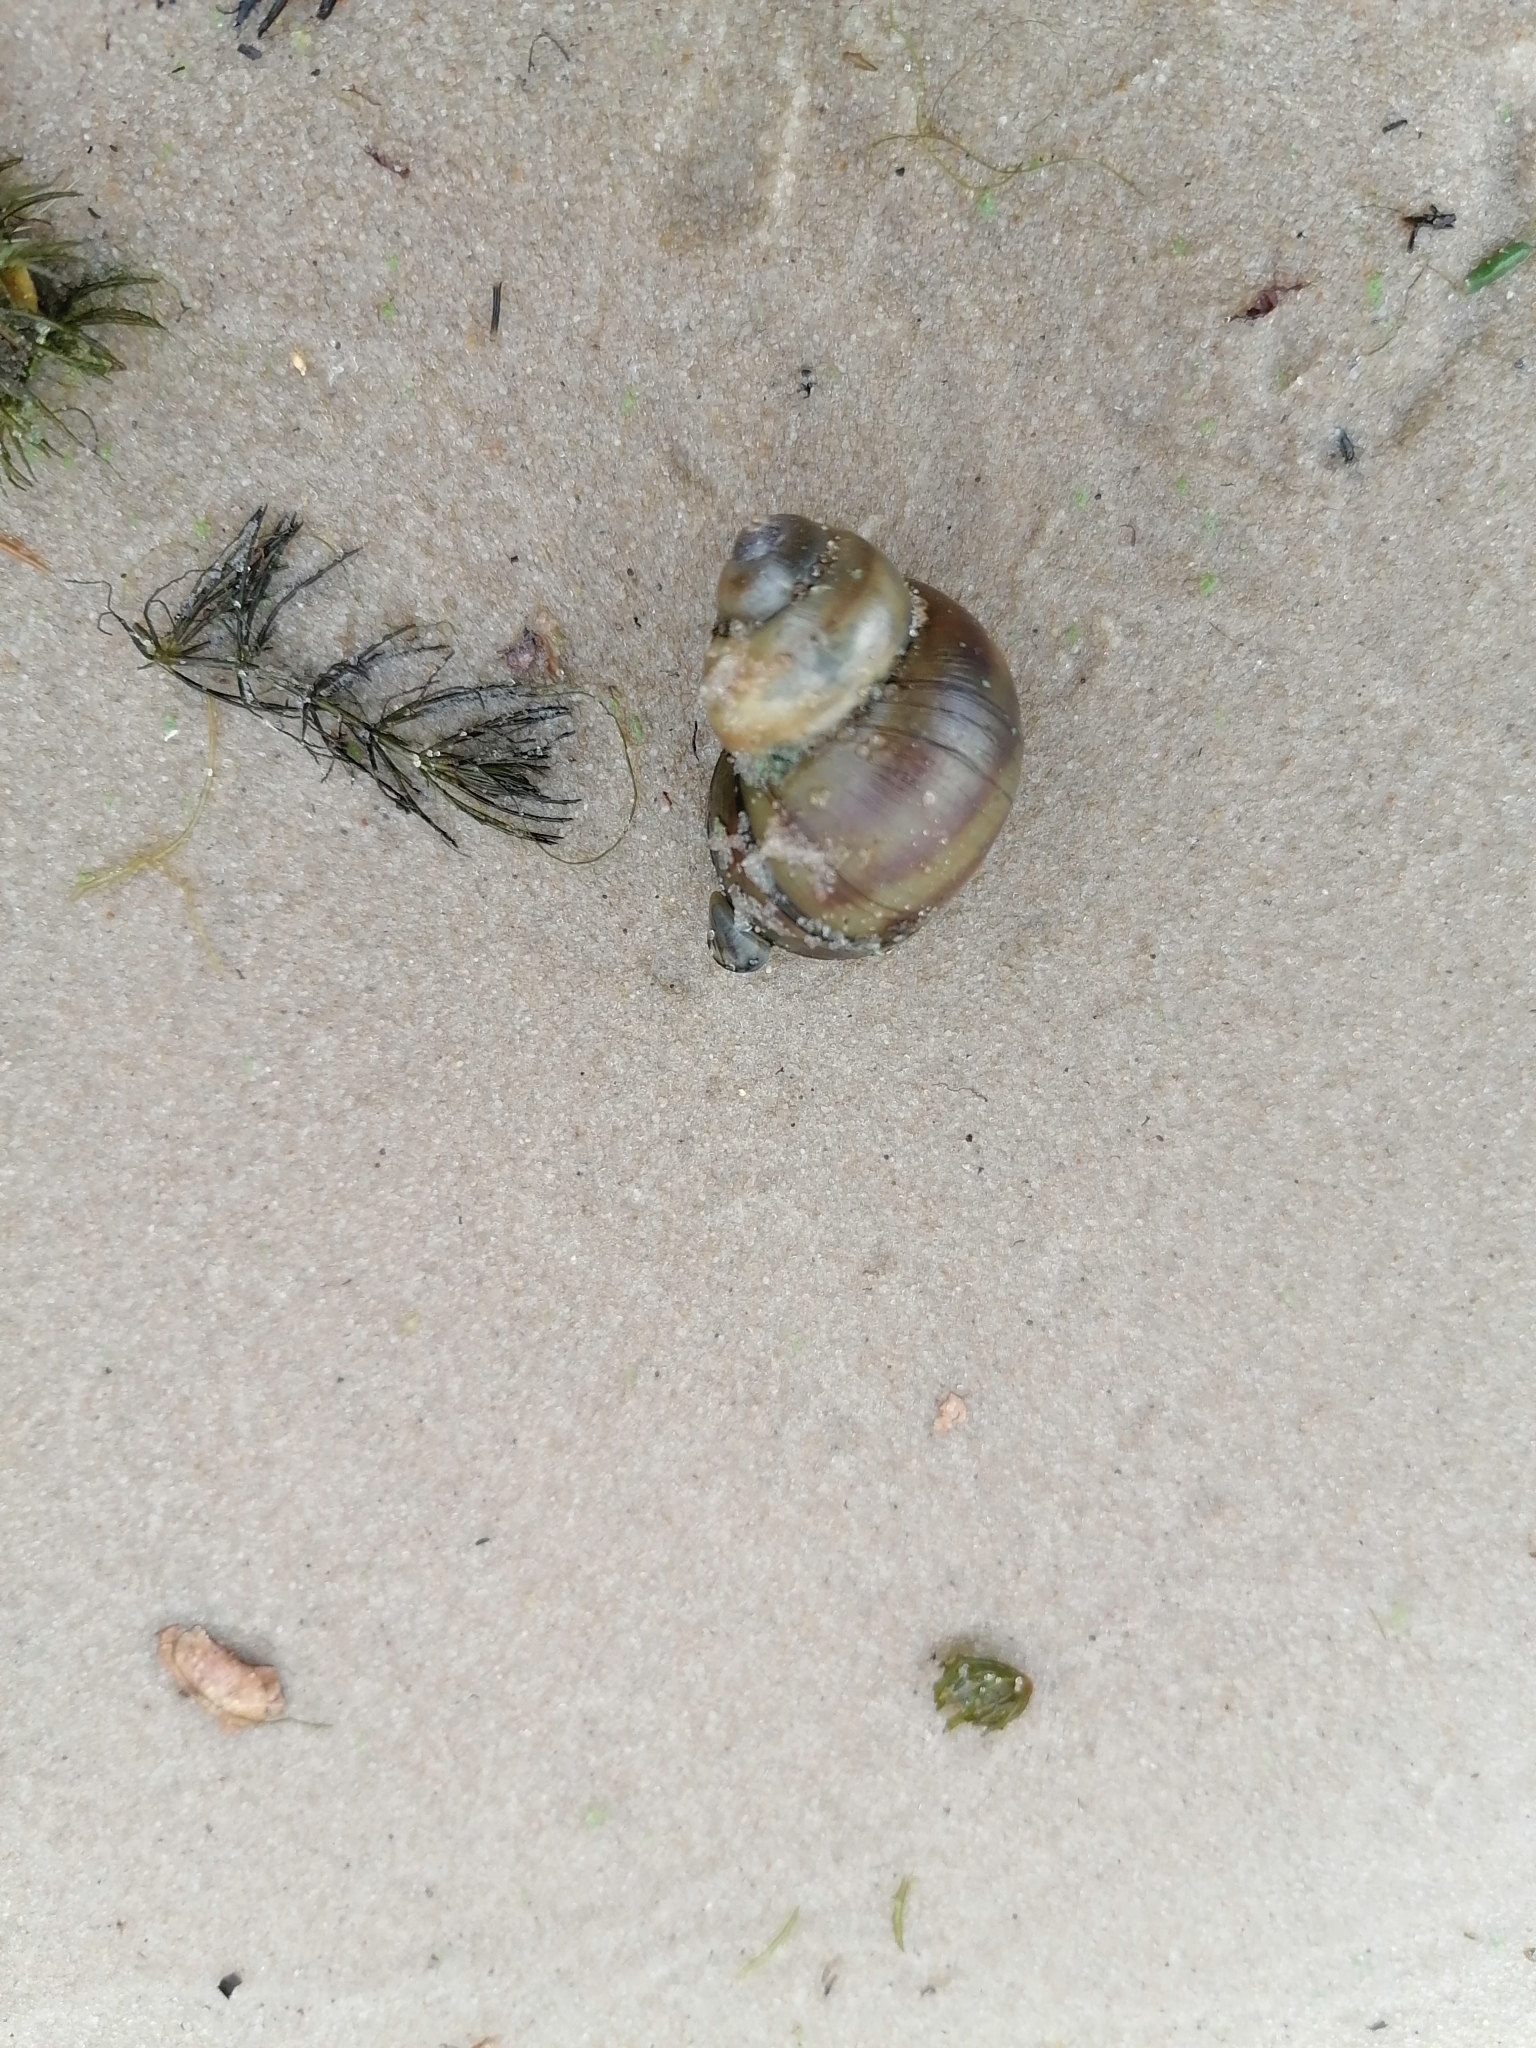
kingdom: Animalia
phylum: Mollusca
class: Gastropoda
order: Architaenioglossa
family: Viviparidae
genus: Viviparus
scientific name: Viviparus viviparus
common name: River snail
